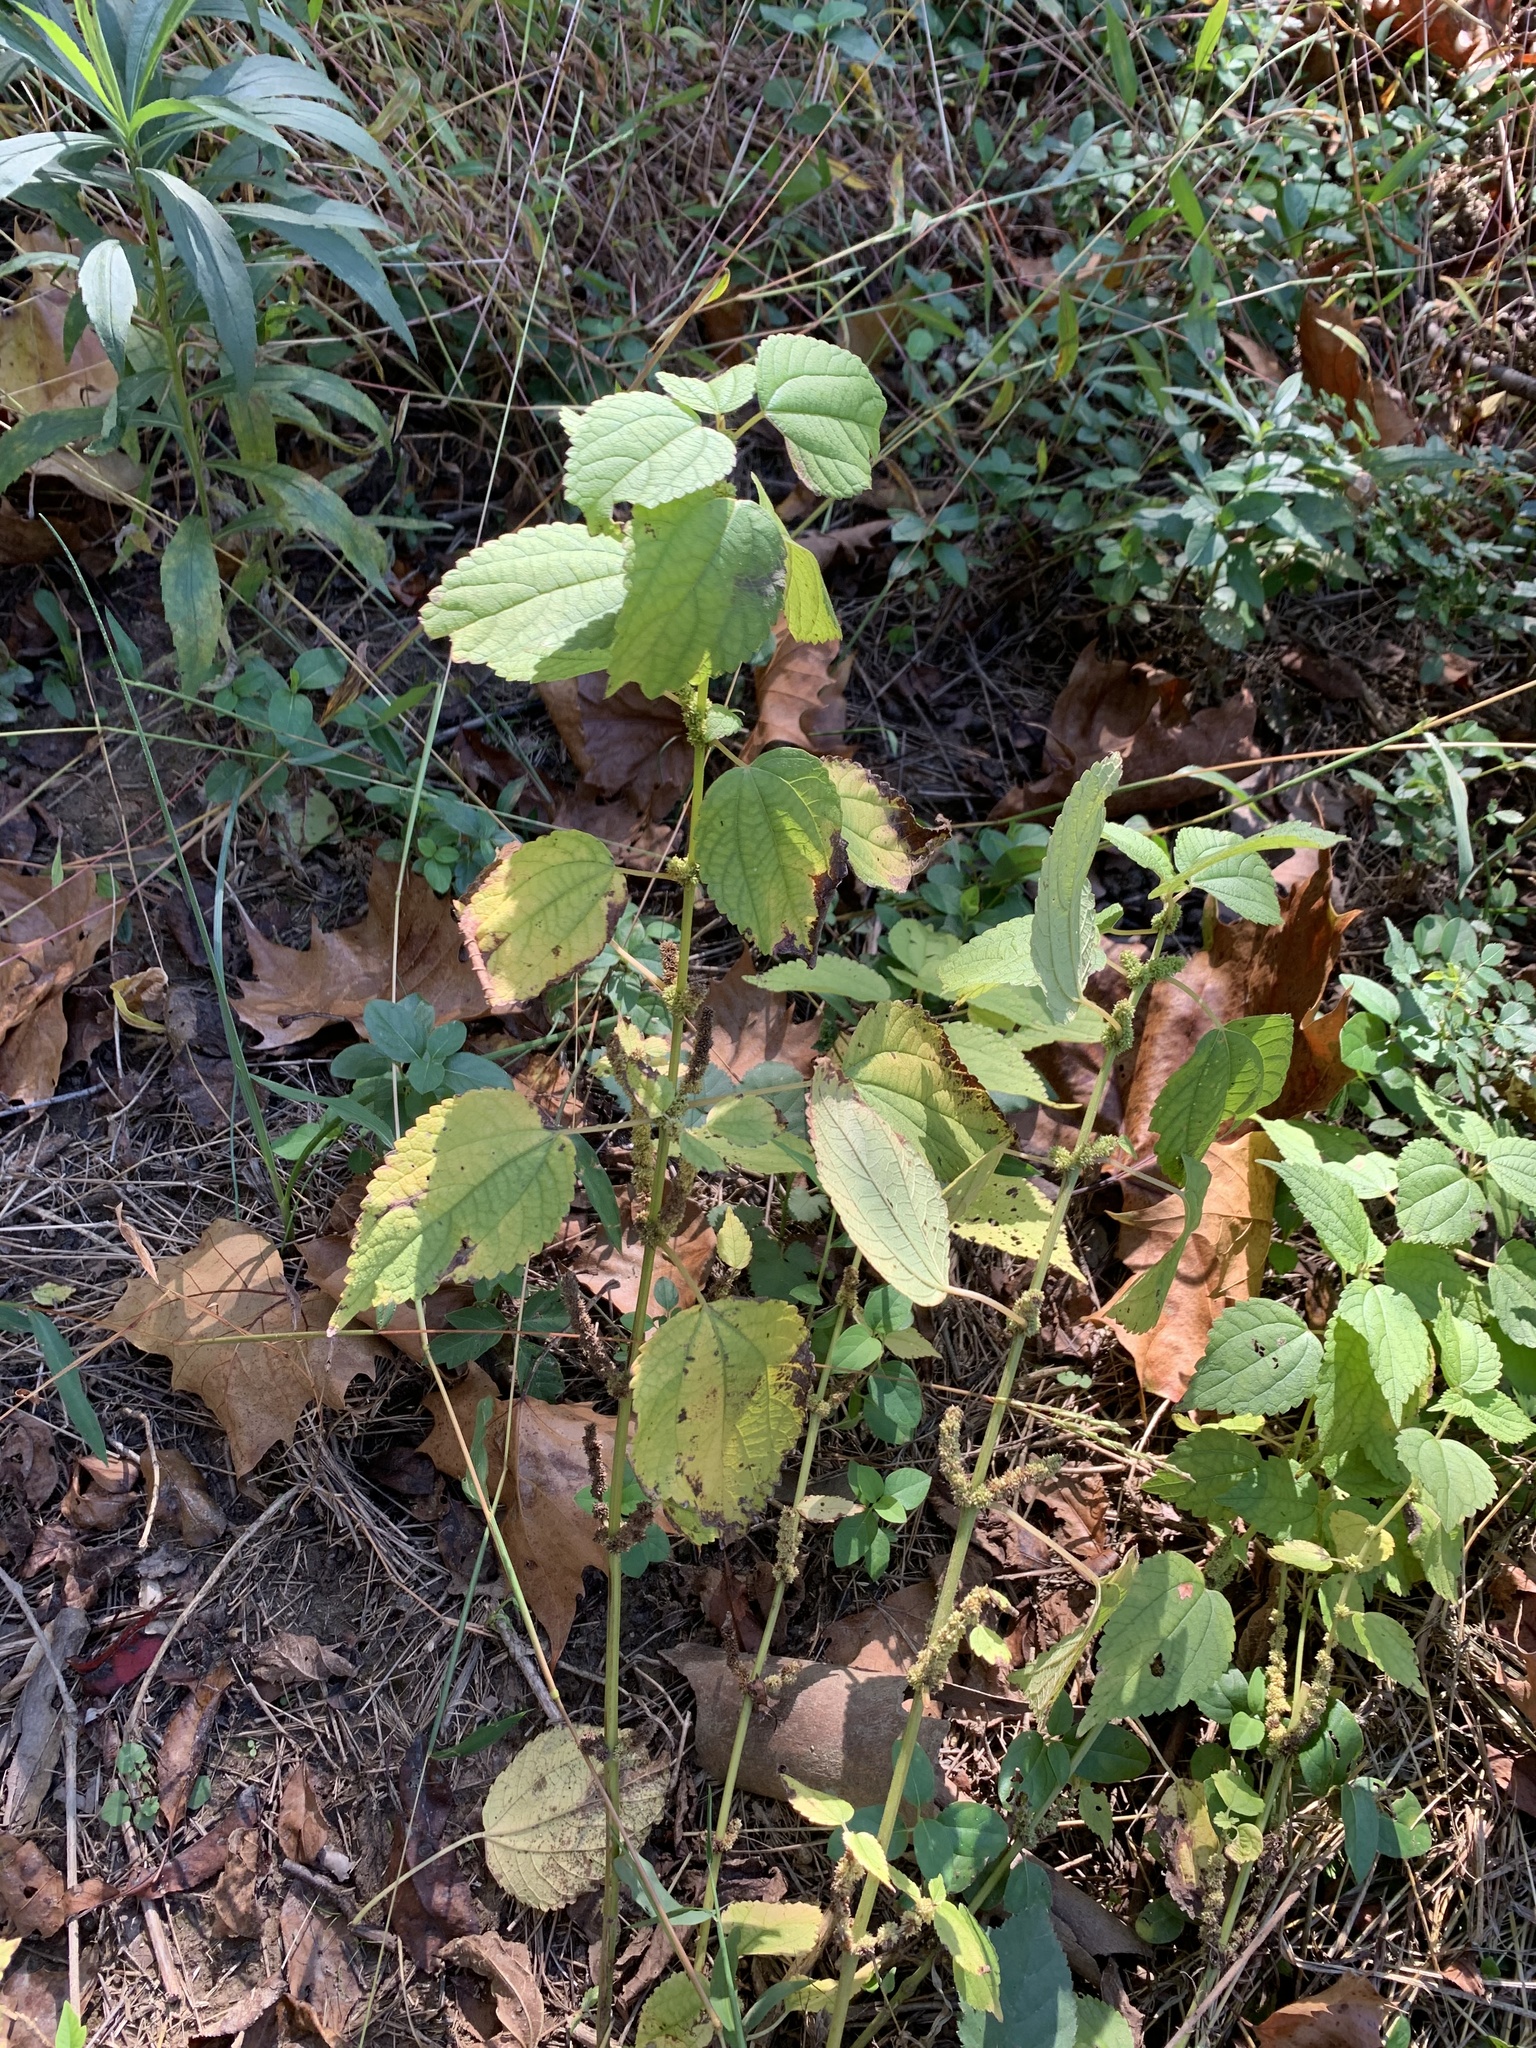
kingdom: Plantae
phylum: Tracheophyta
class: Magnoliopsida
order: Rosales
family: Urticaceae
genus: Boehmeria
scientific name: Boehmeria cylindrica
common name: Bog-hemp
